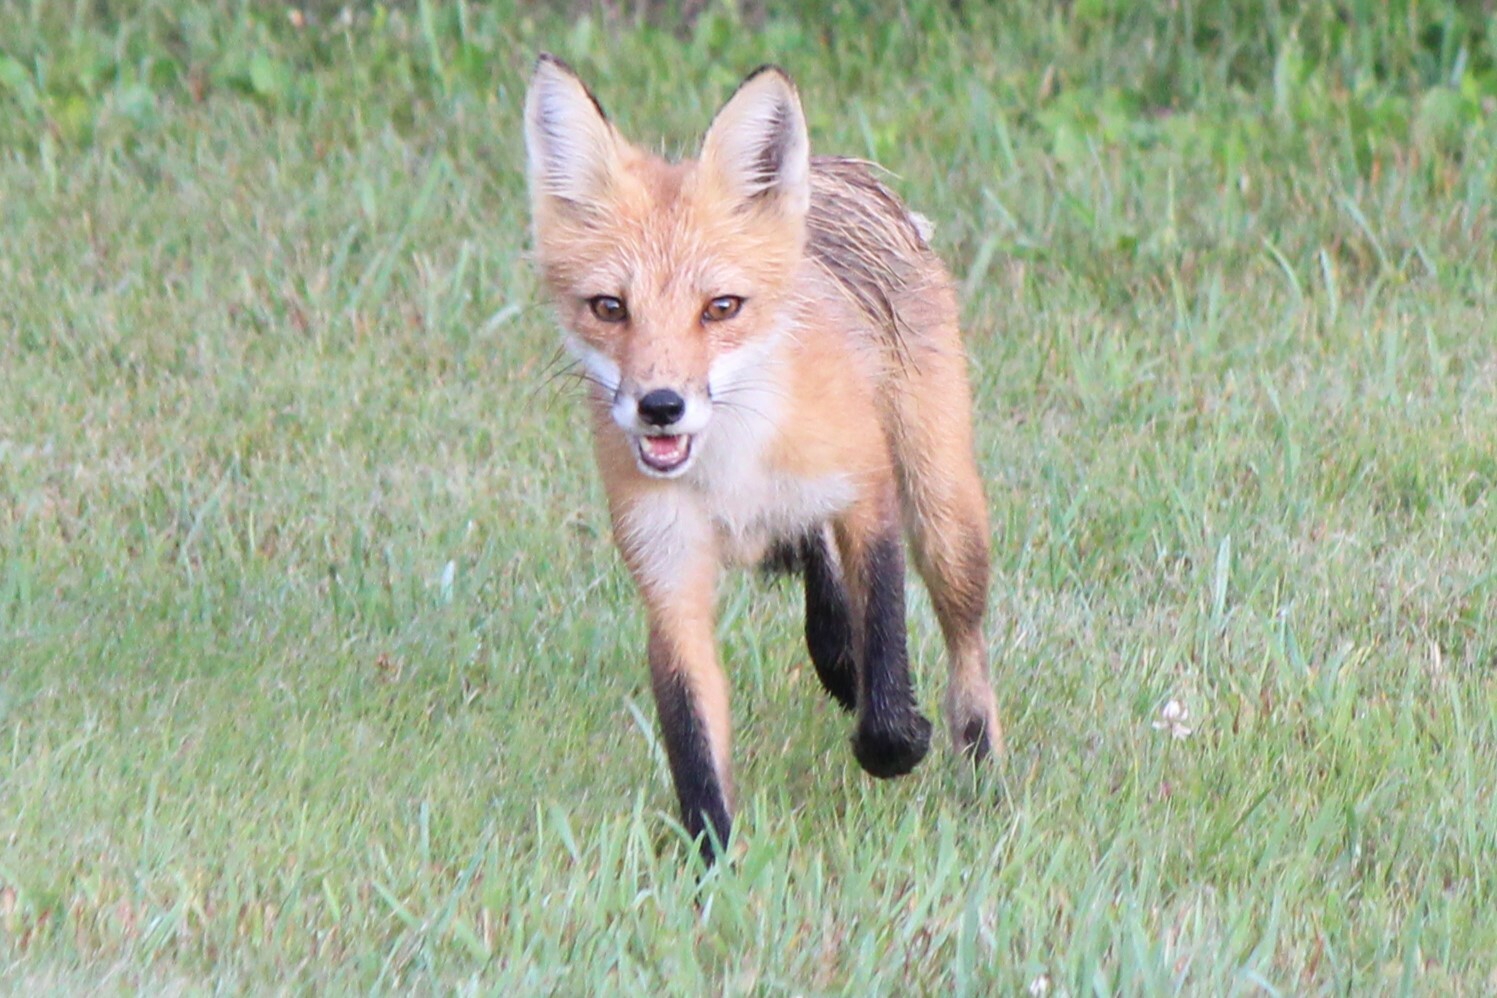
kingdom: Animalia
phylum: Chordata
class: Mammalia
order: Carnivora
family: Canidae
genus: Vulpes
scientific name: Vulpes vulpes
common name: Red fox
